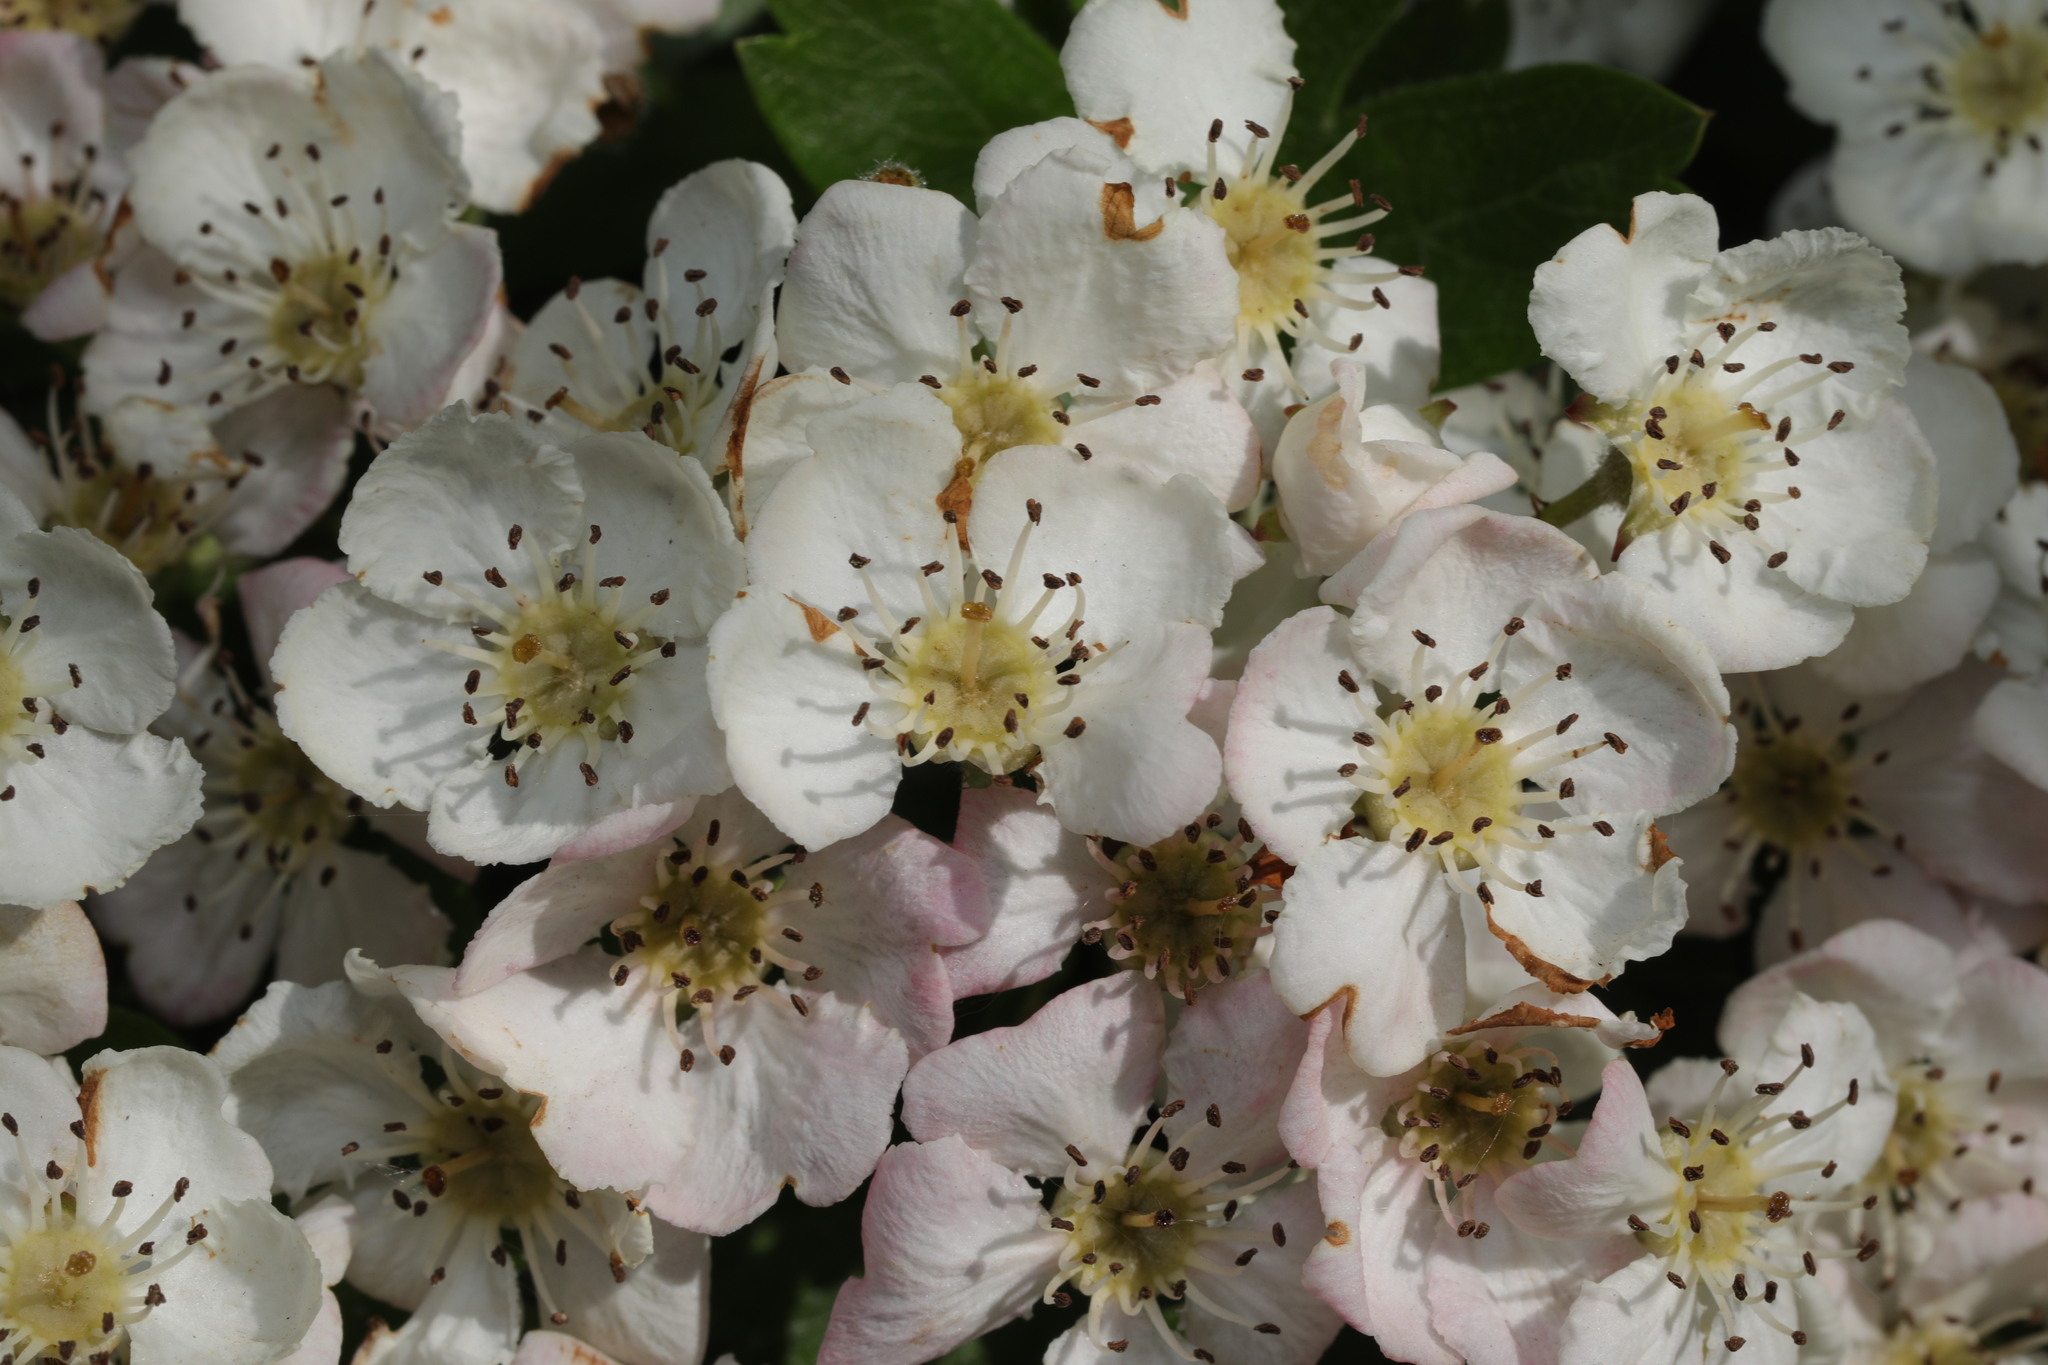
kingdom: Plantae
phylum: Tracheophyta
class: Magnoliopsida
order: Rosales
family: Rosaceae
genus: Crataegus
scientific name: Crataegus monogyna
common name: Hawthorn
